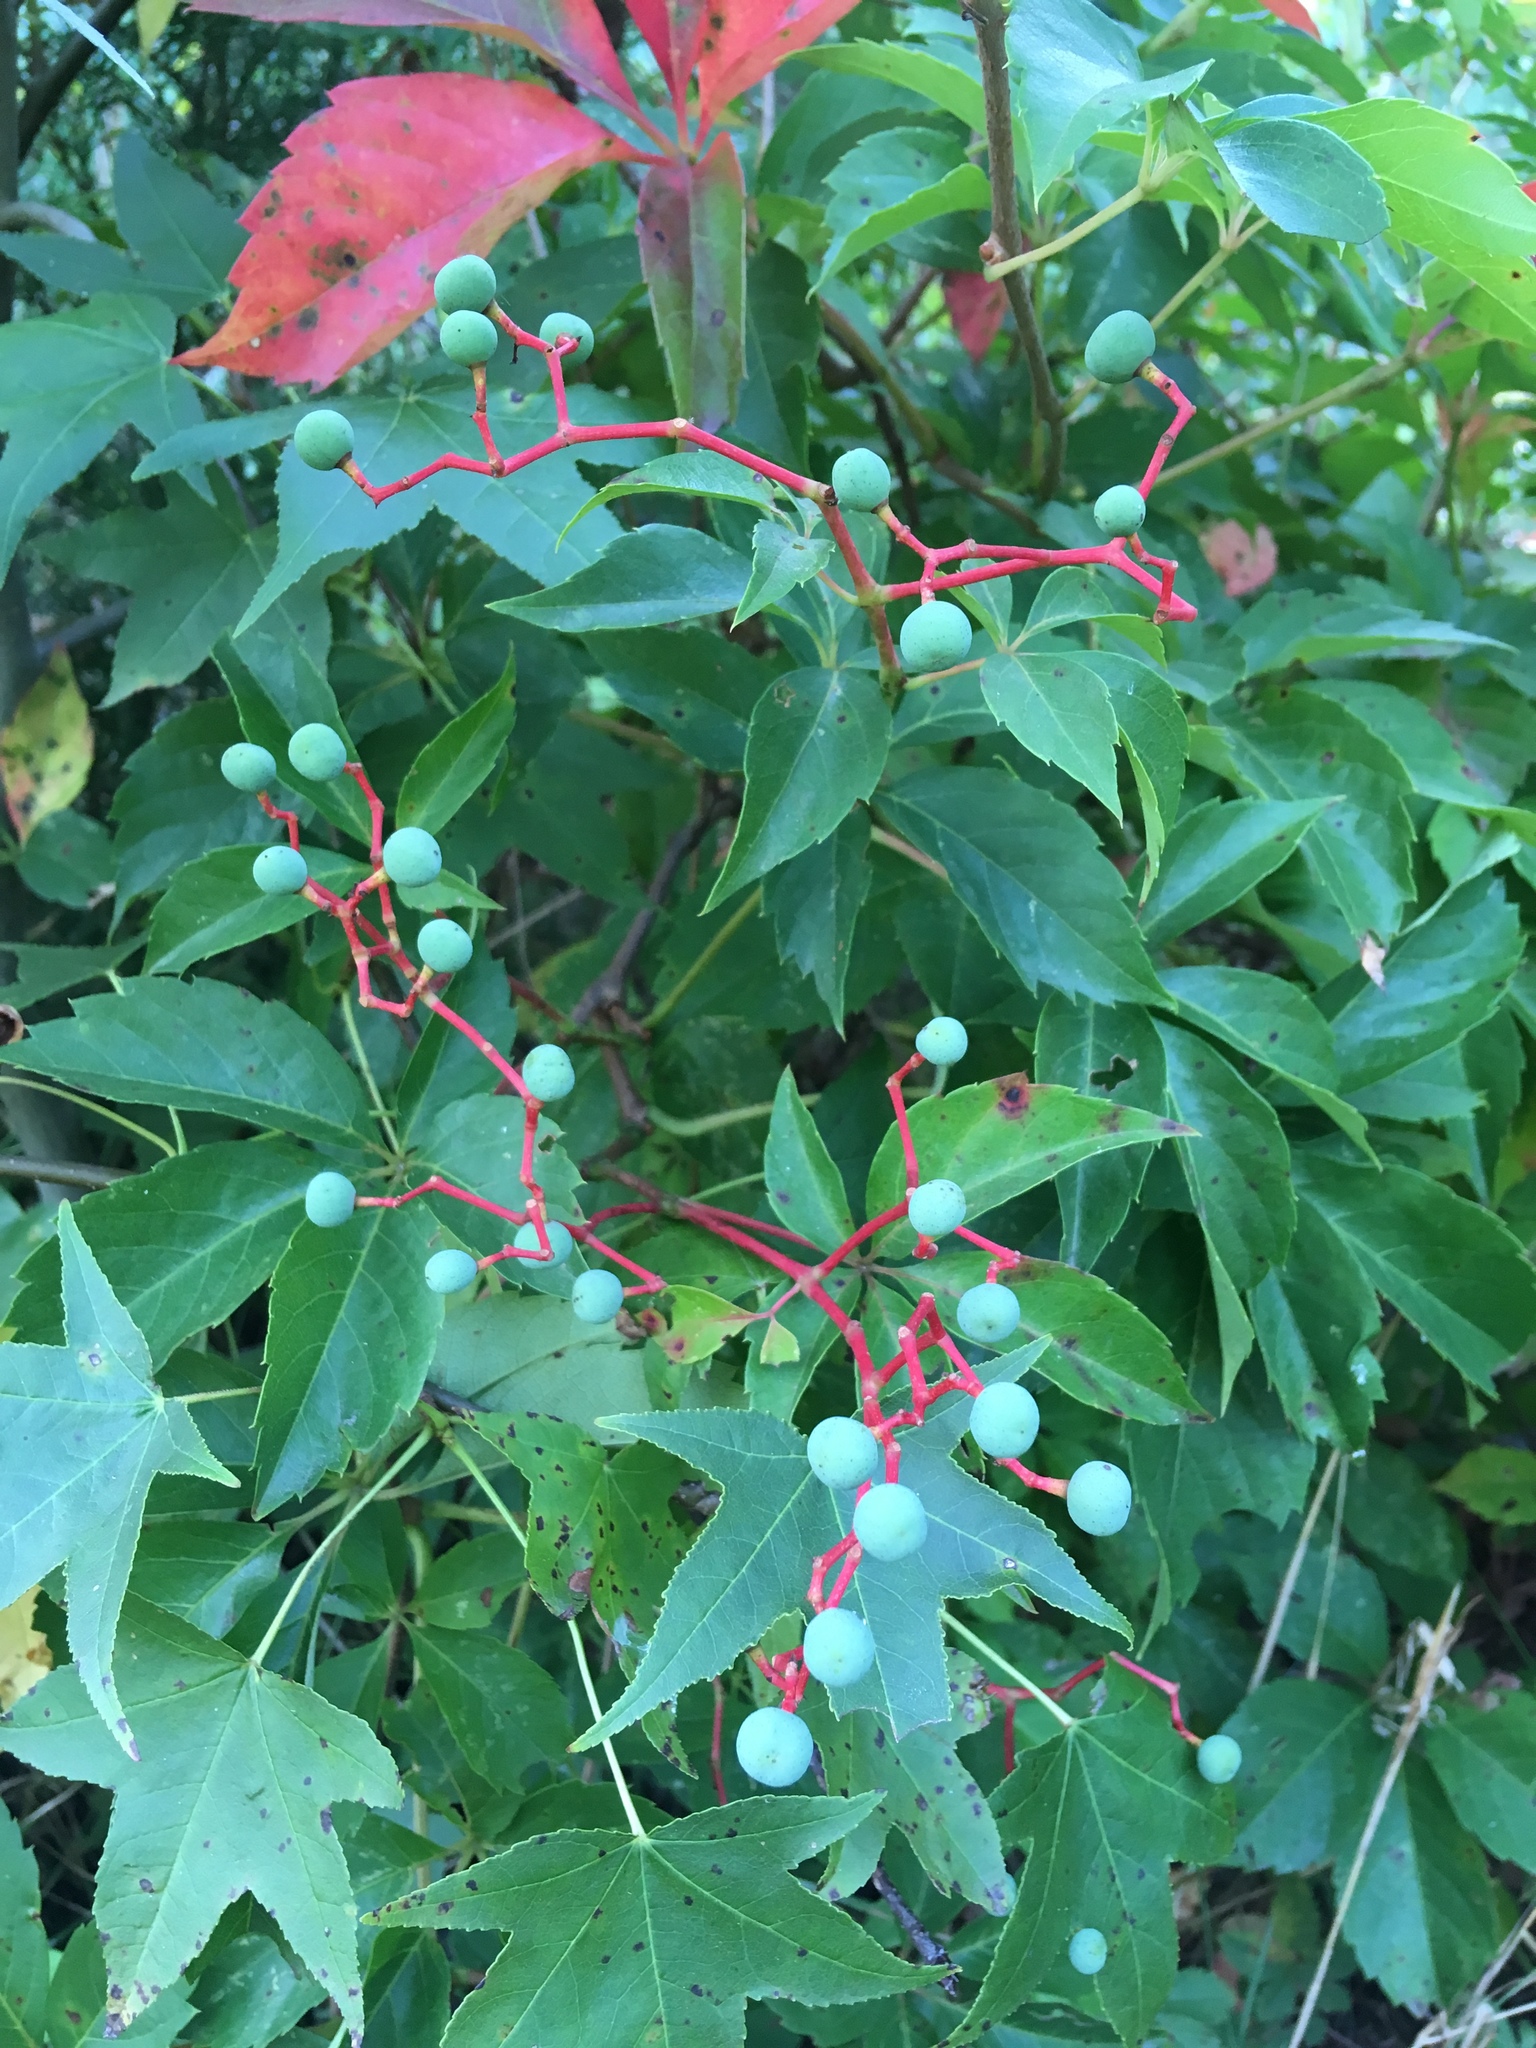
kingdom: Plantae
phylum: Tracheophyta
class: Magnoliopsida
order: Vitales
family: Vitaceae
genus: Parthenocissus
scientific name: Parthenocissus quinquefolia
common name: Virginia-creeper
